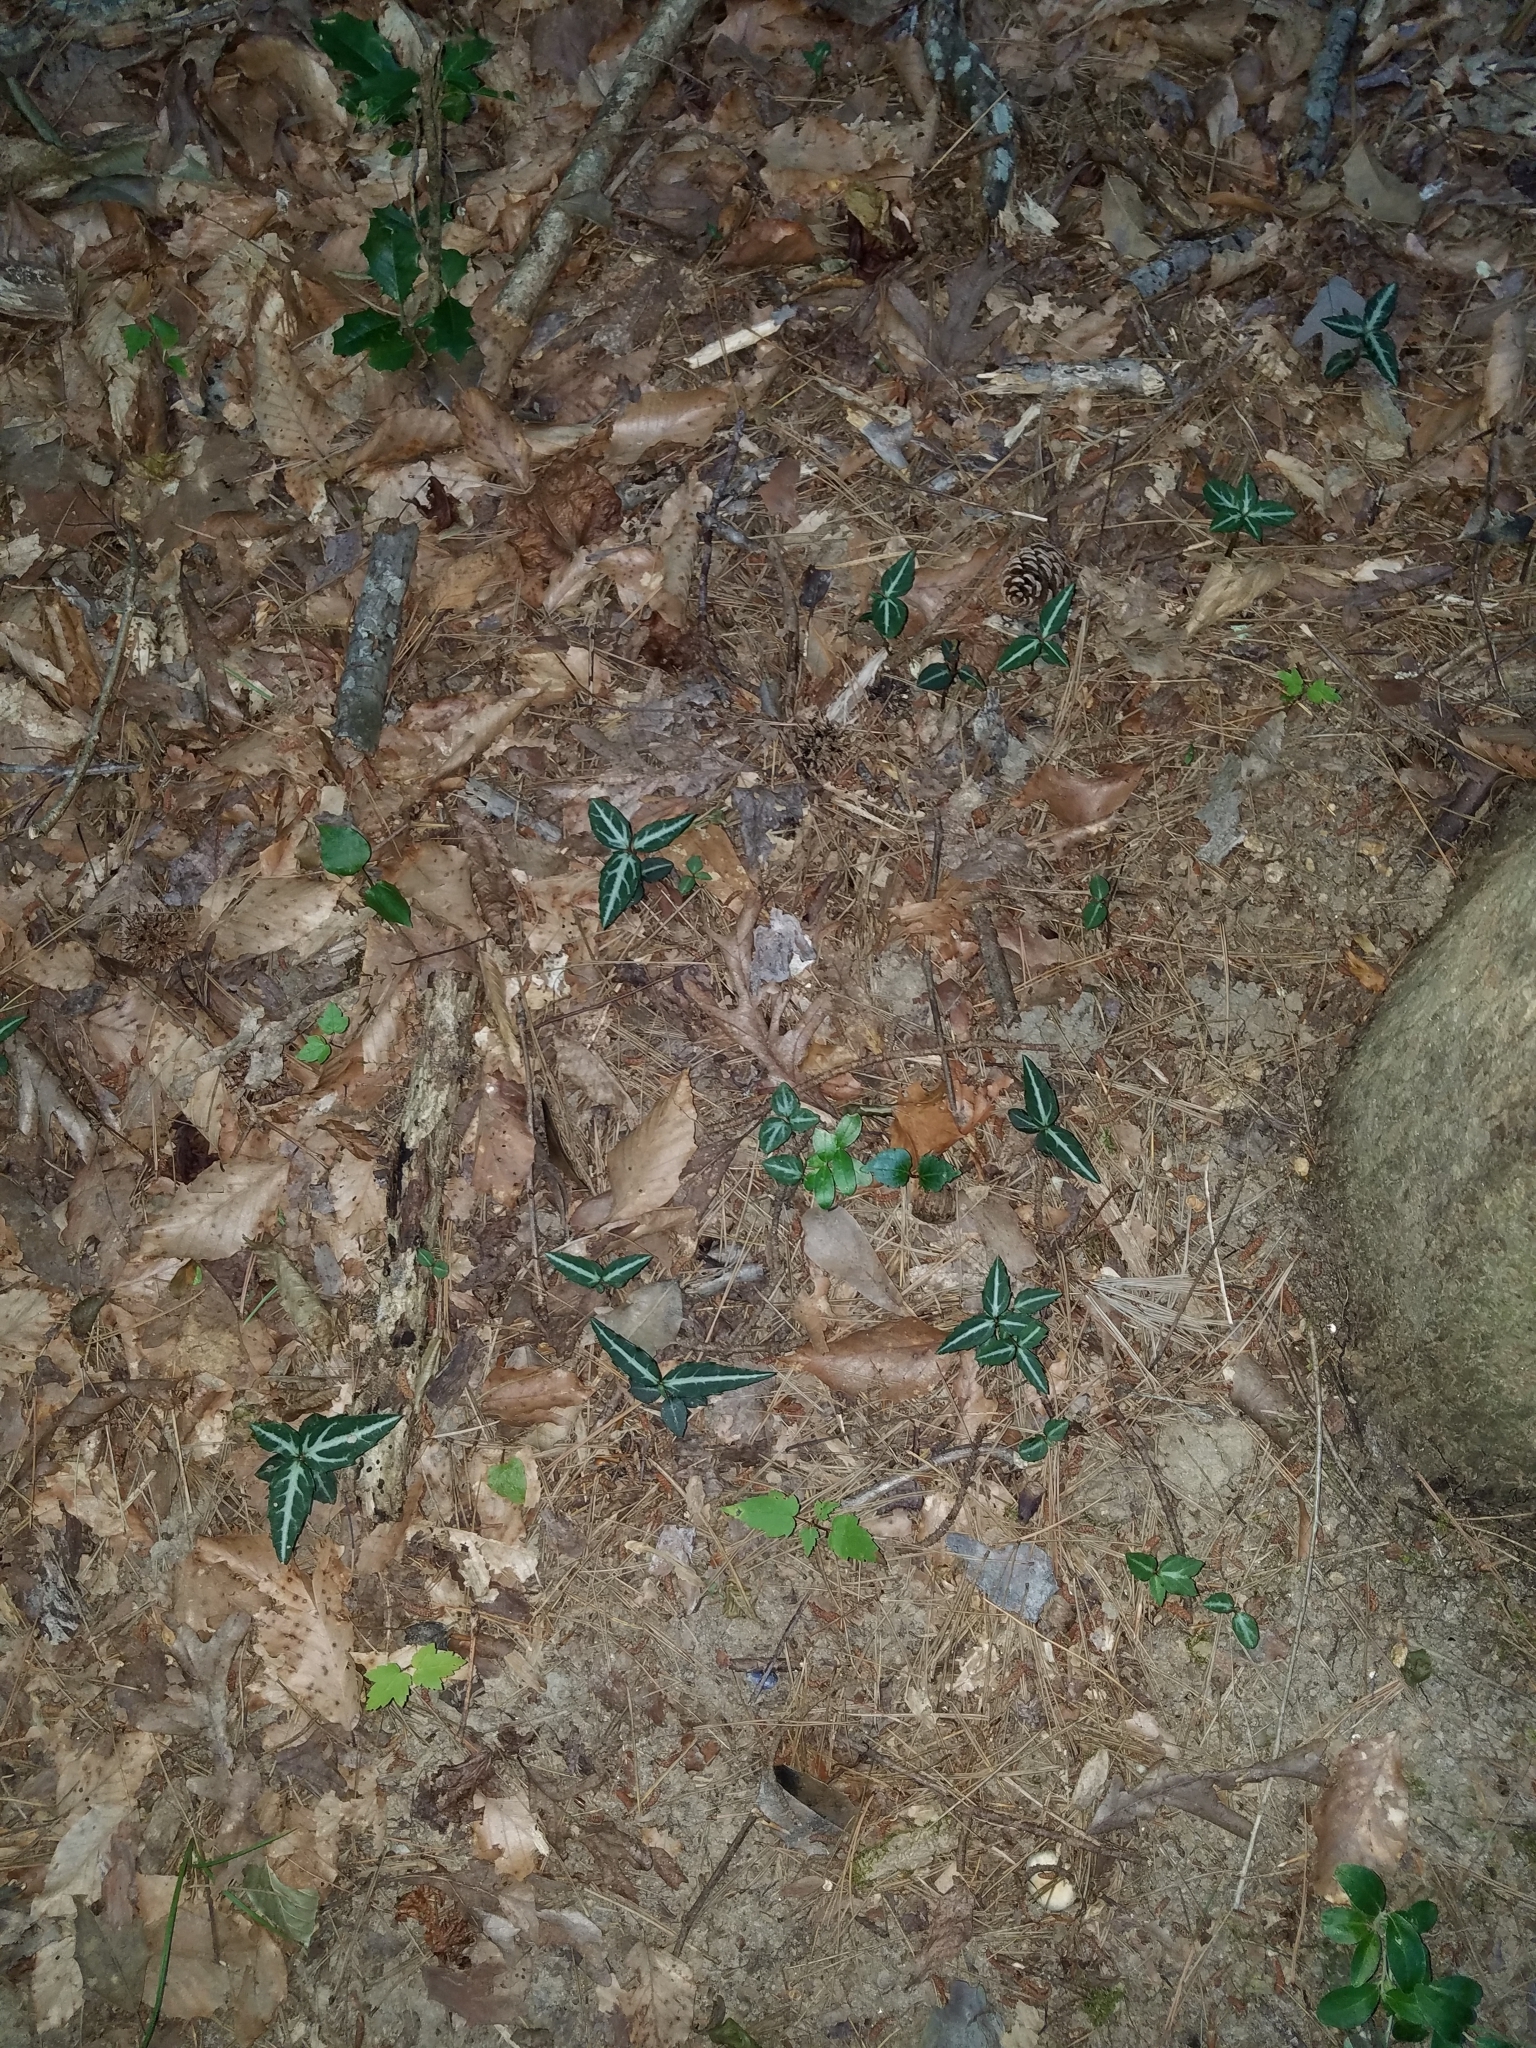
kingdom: Plantae
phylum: Tracheophyta
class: Magnoliopsida
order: Ericales
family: Ericaceae
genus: Chimaphila
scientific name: Chimaphila maculata
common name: Spotted pipsissewa
